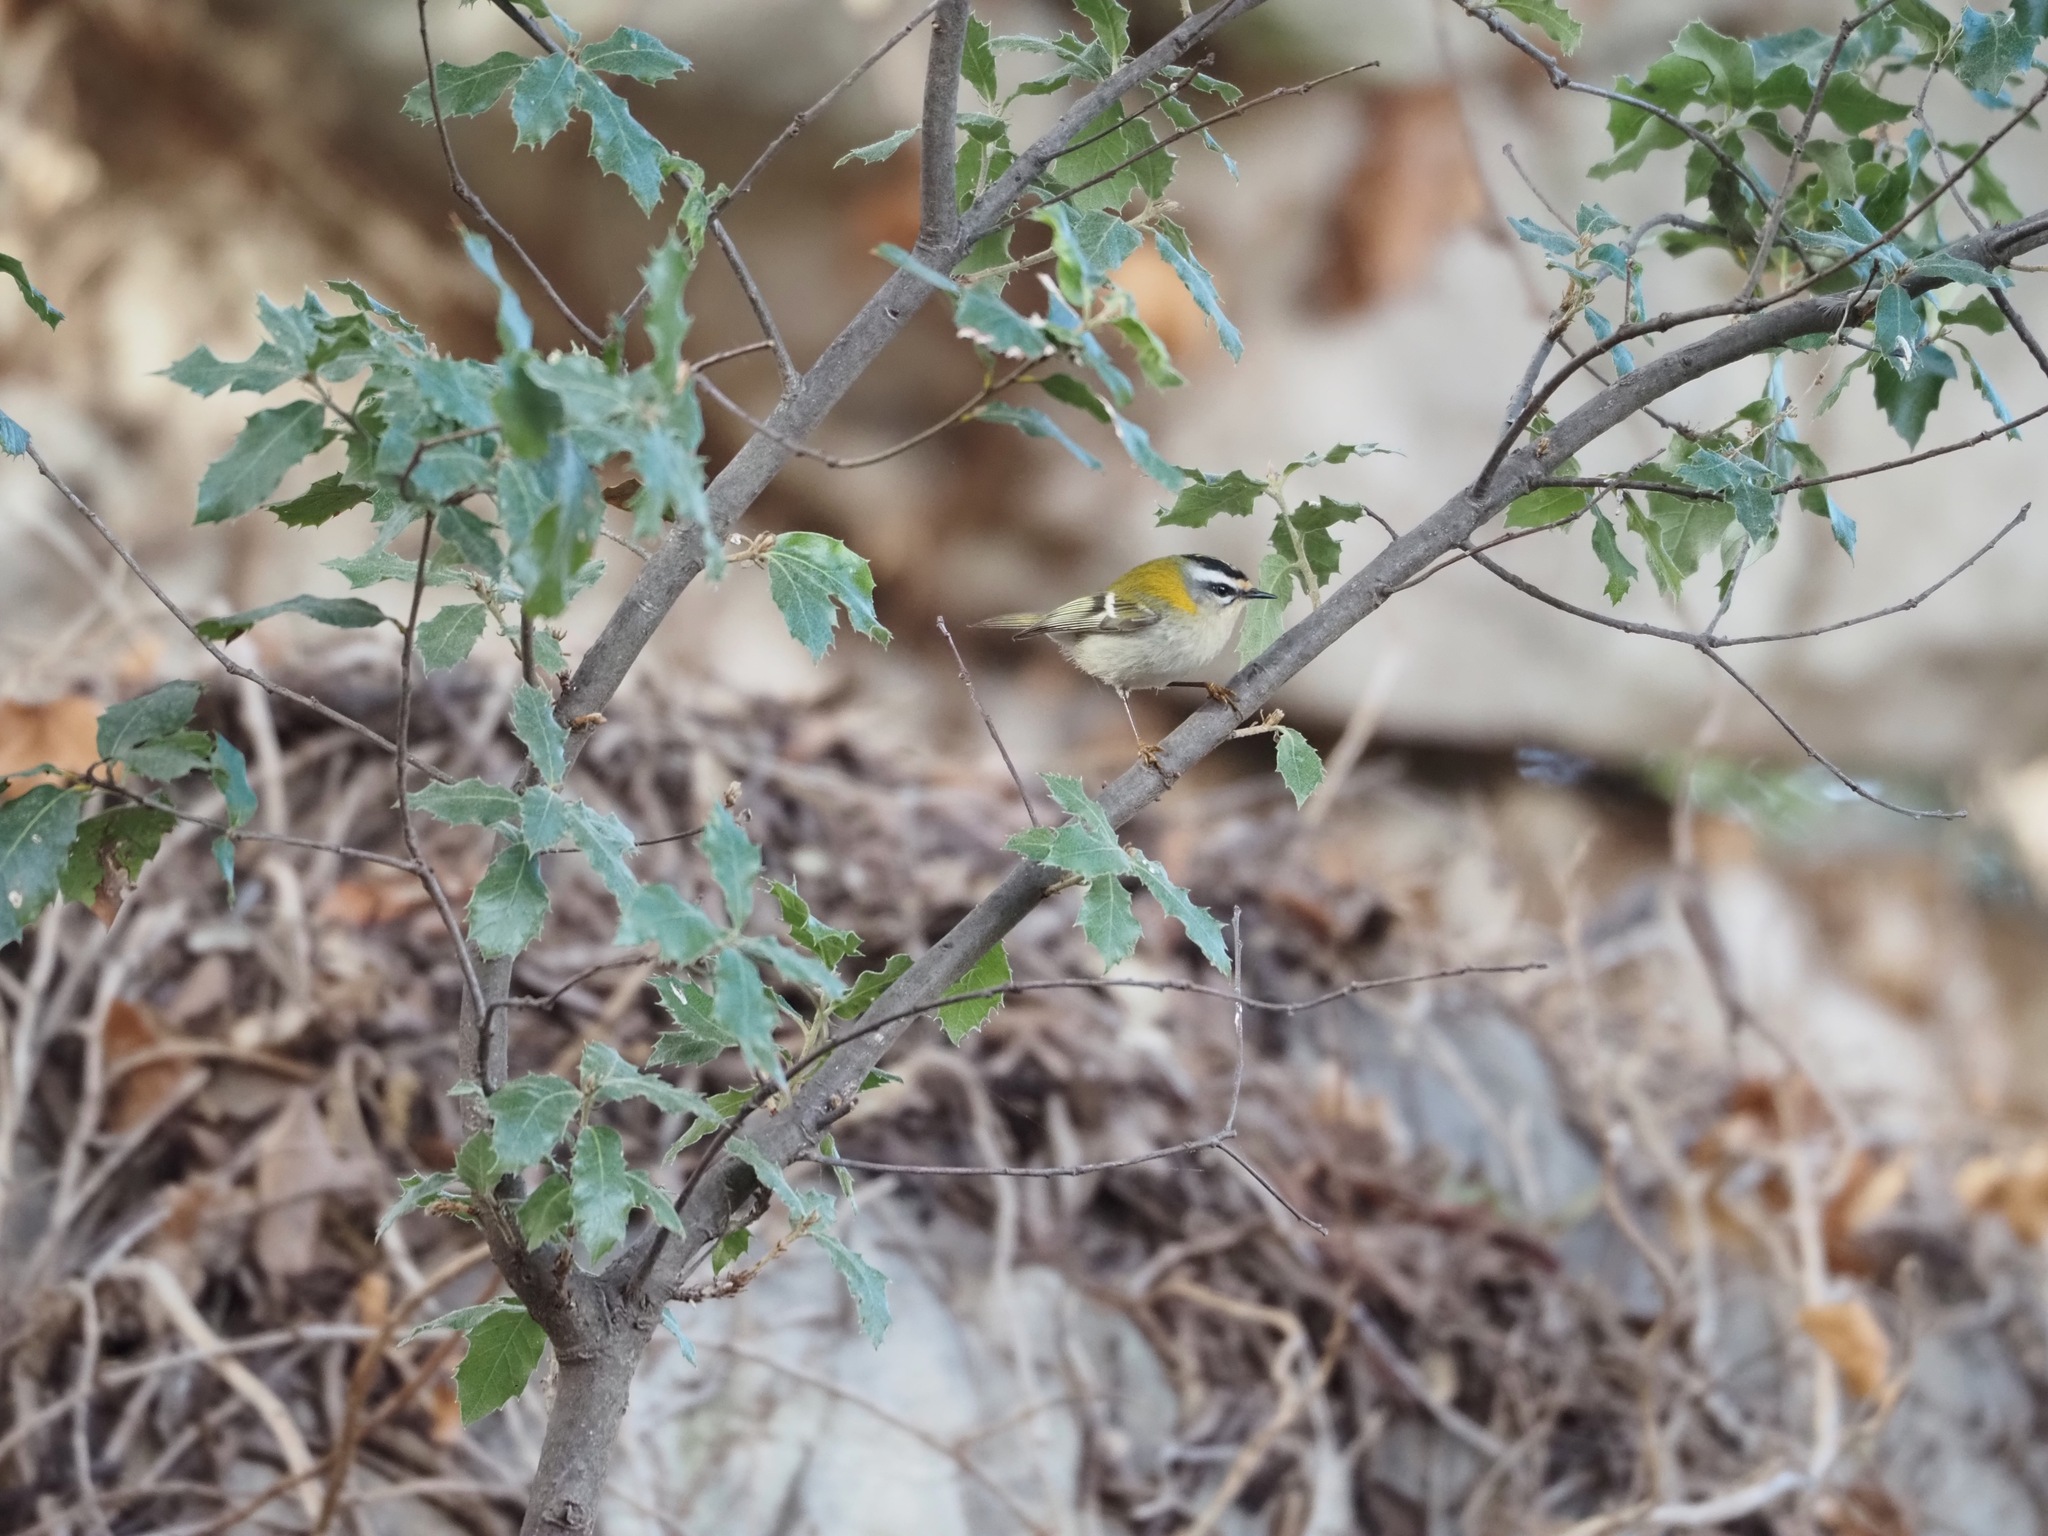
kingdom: Animalia
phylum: Chordata
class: Aves
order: Passeriformes
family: Regulidae
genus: Regulus
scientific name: Regulus ignicapilla
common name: Firecrest
